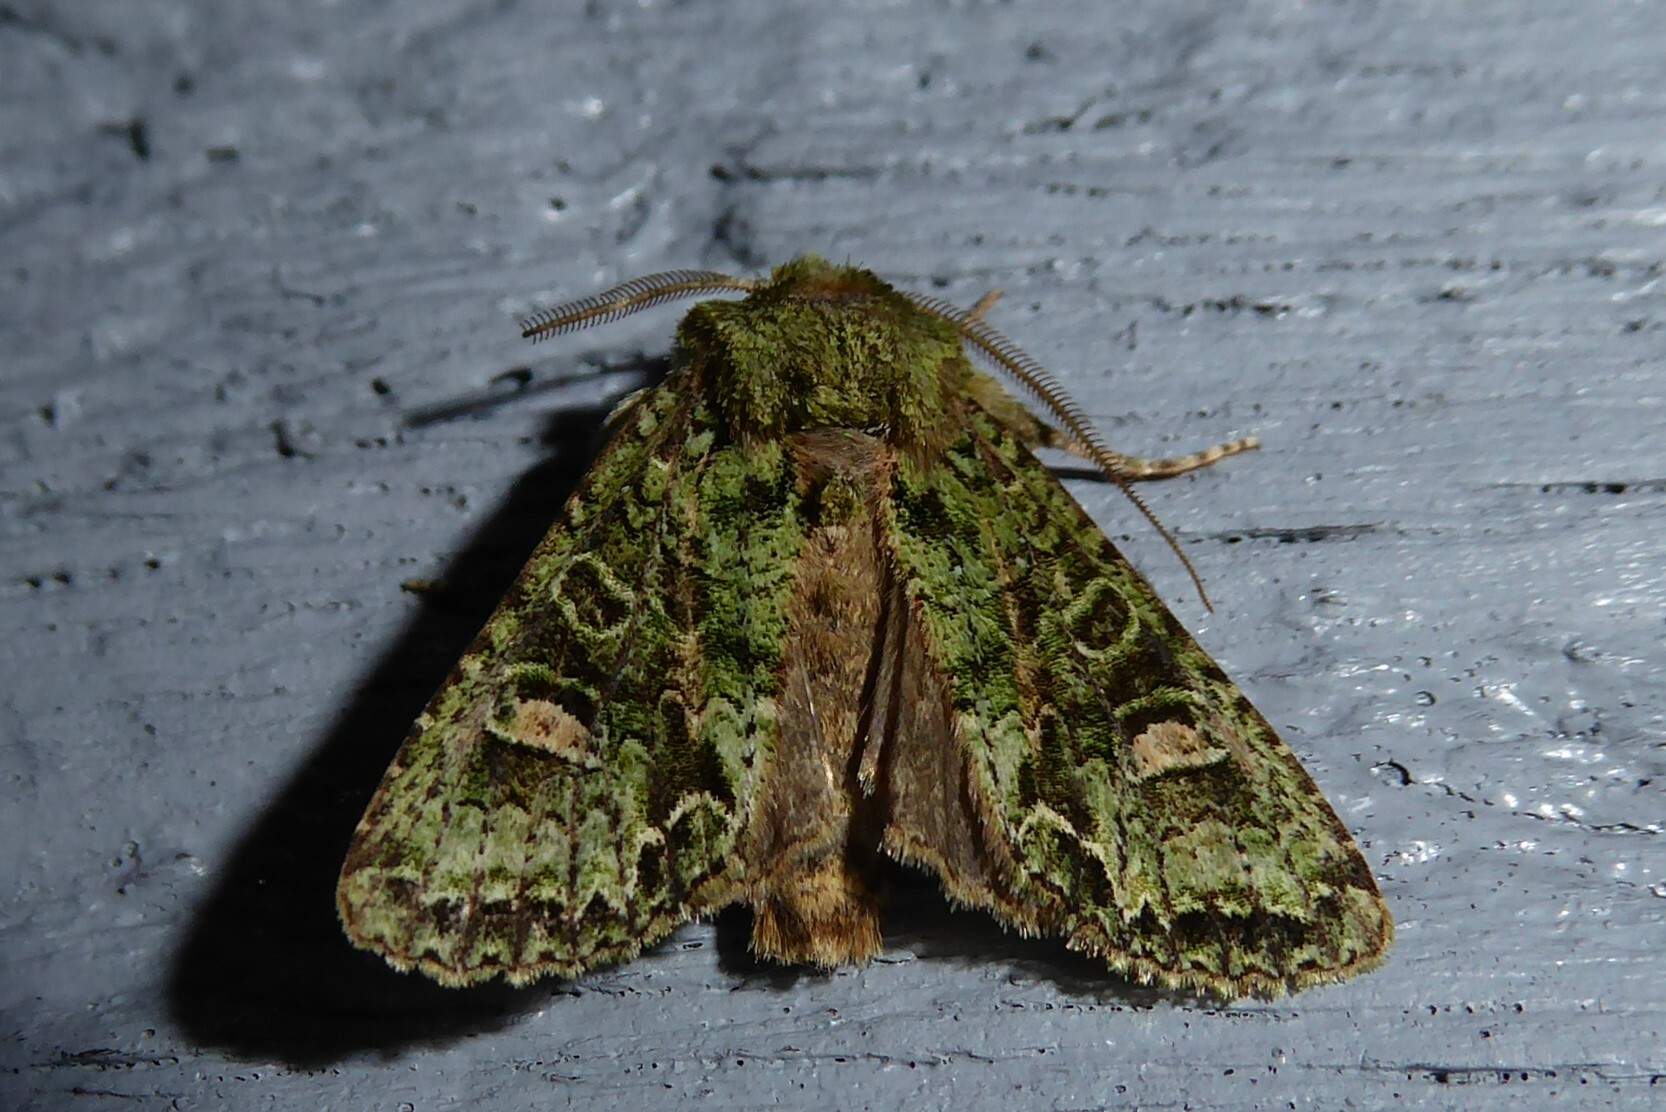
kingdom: Animalia
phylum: Arthropoda
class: Insecta
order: Lepidoptera
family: Noctuidae
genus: Ichneutica
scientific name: Ichneutica
